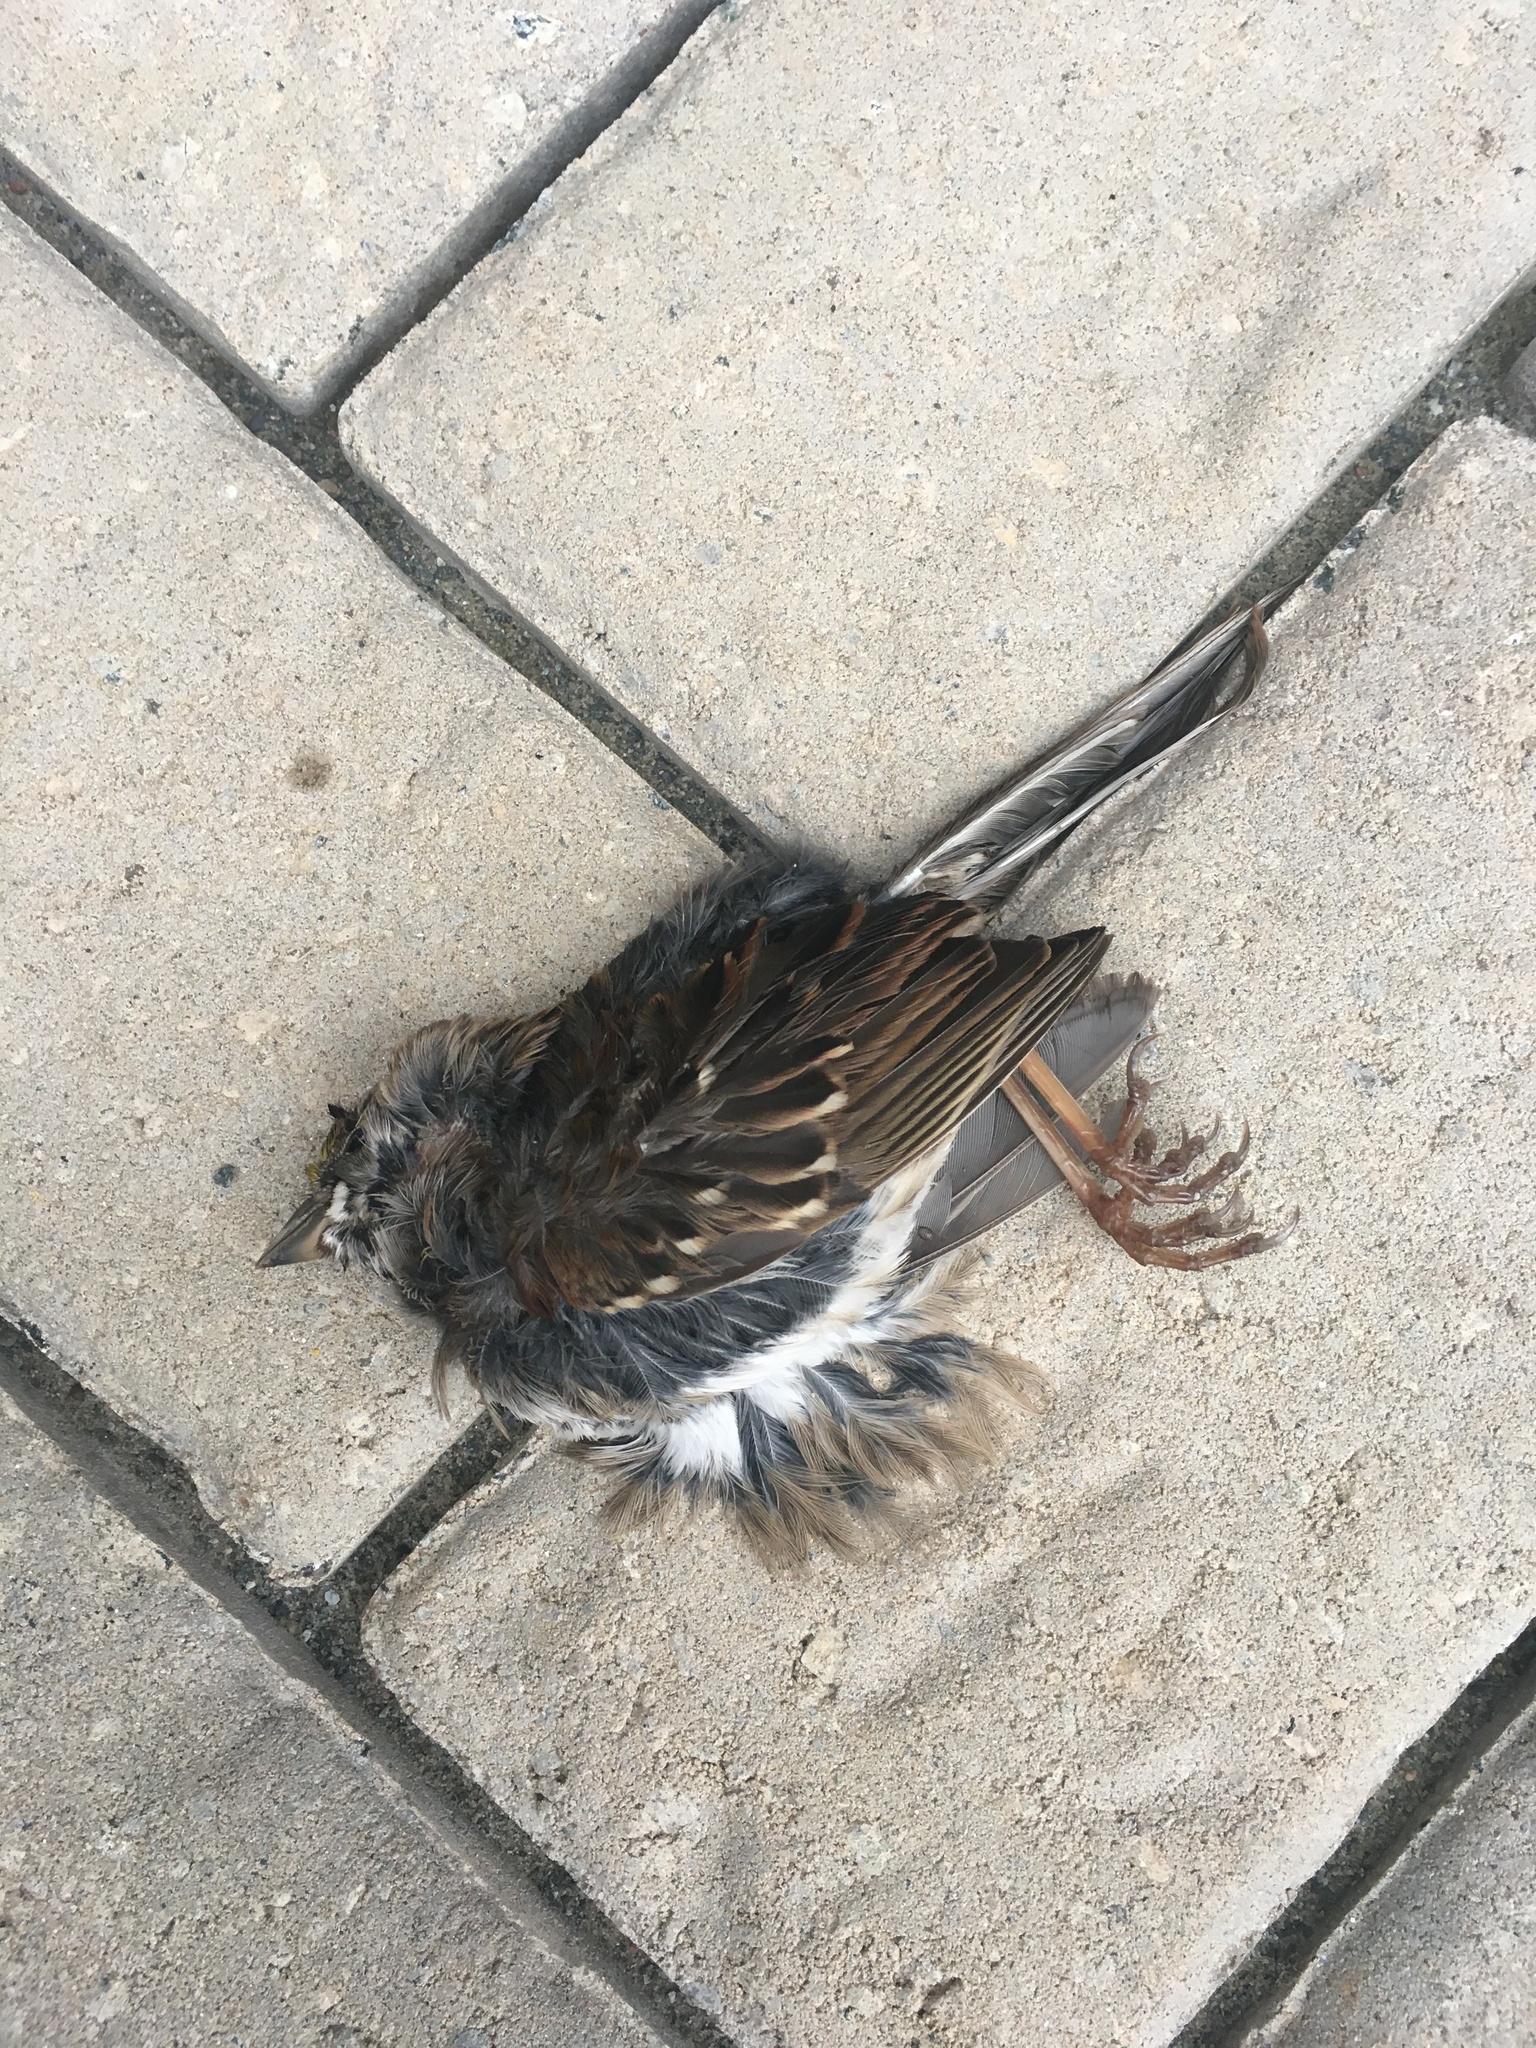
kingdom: Animalia
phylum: Chordata
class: Aves
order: Passeriformes
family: Passerellidae
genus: Zonotrichia
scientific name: Zonotrichia albicollis
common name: White-throated sparrow
